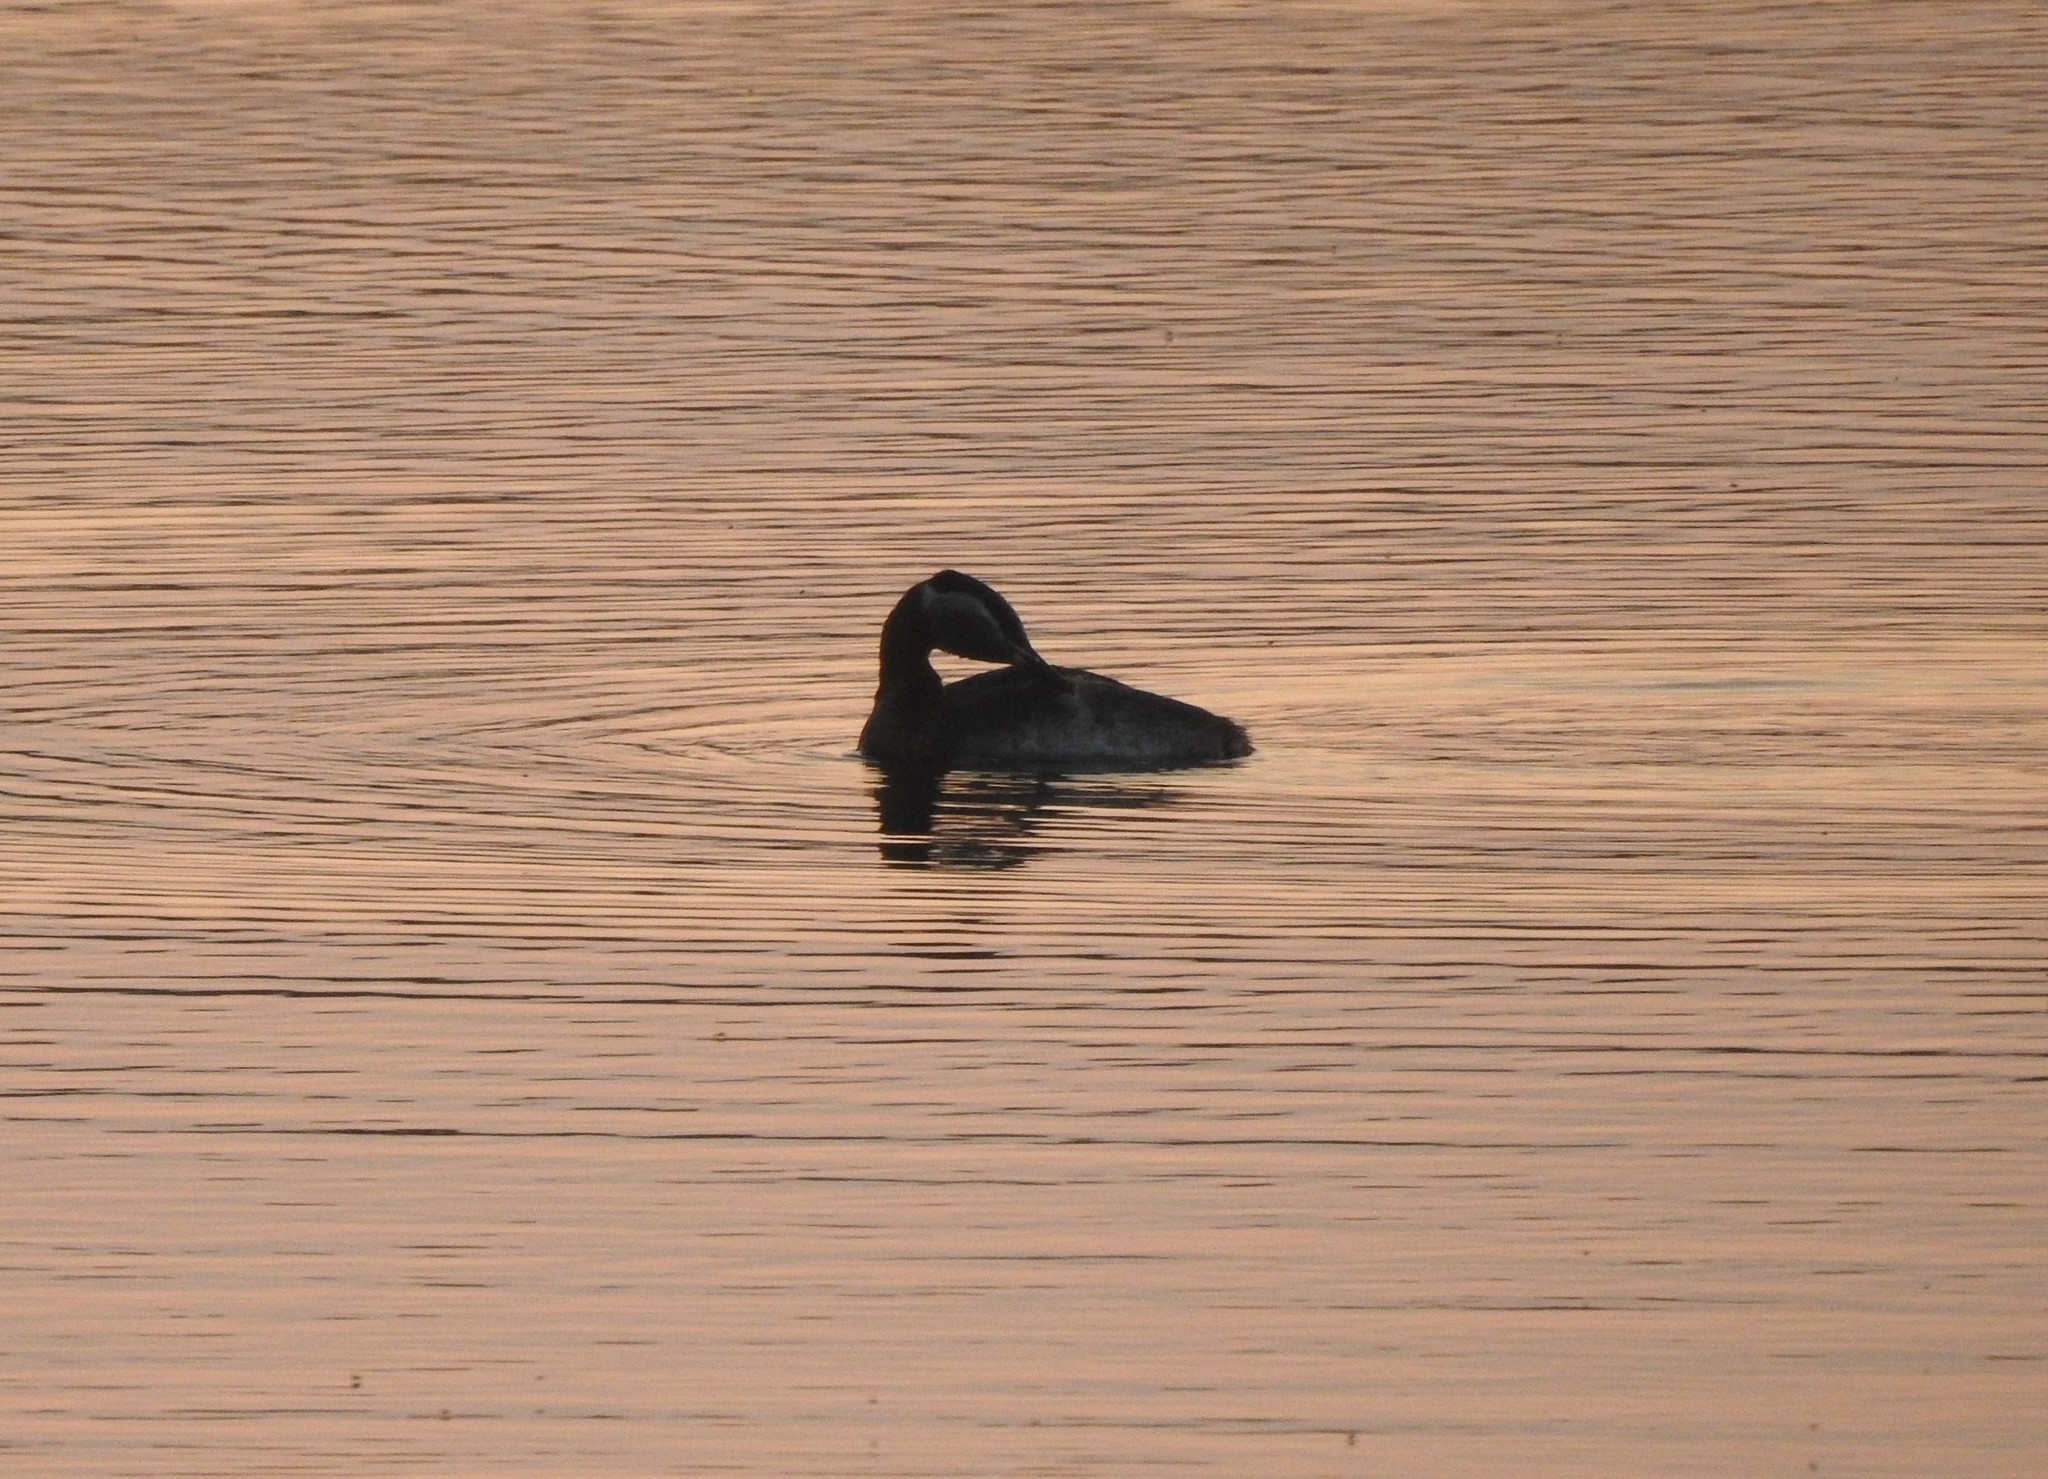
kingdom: Animalia
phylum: Chordata
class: Aves
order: Podicipediformes
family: Podicipedidae
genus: Podiceps
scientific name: Podiceps grisegena
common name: Red-necked grebe
